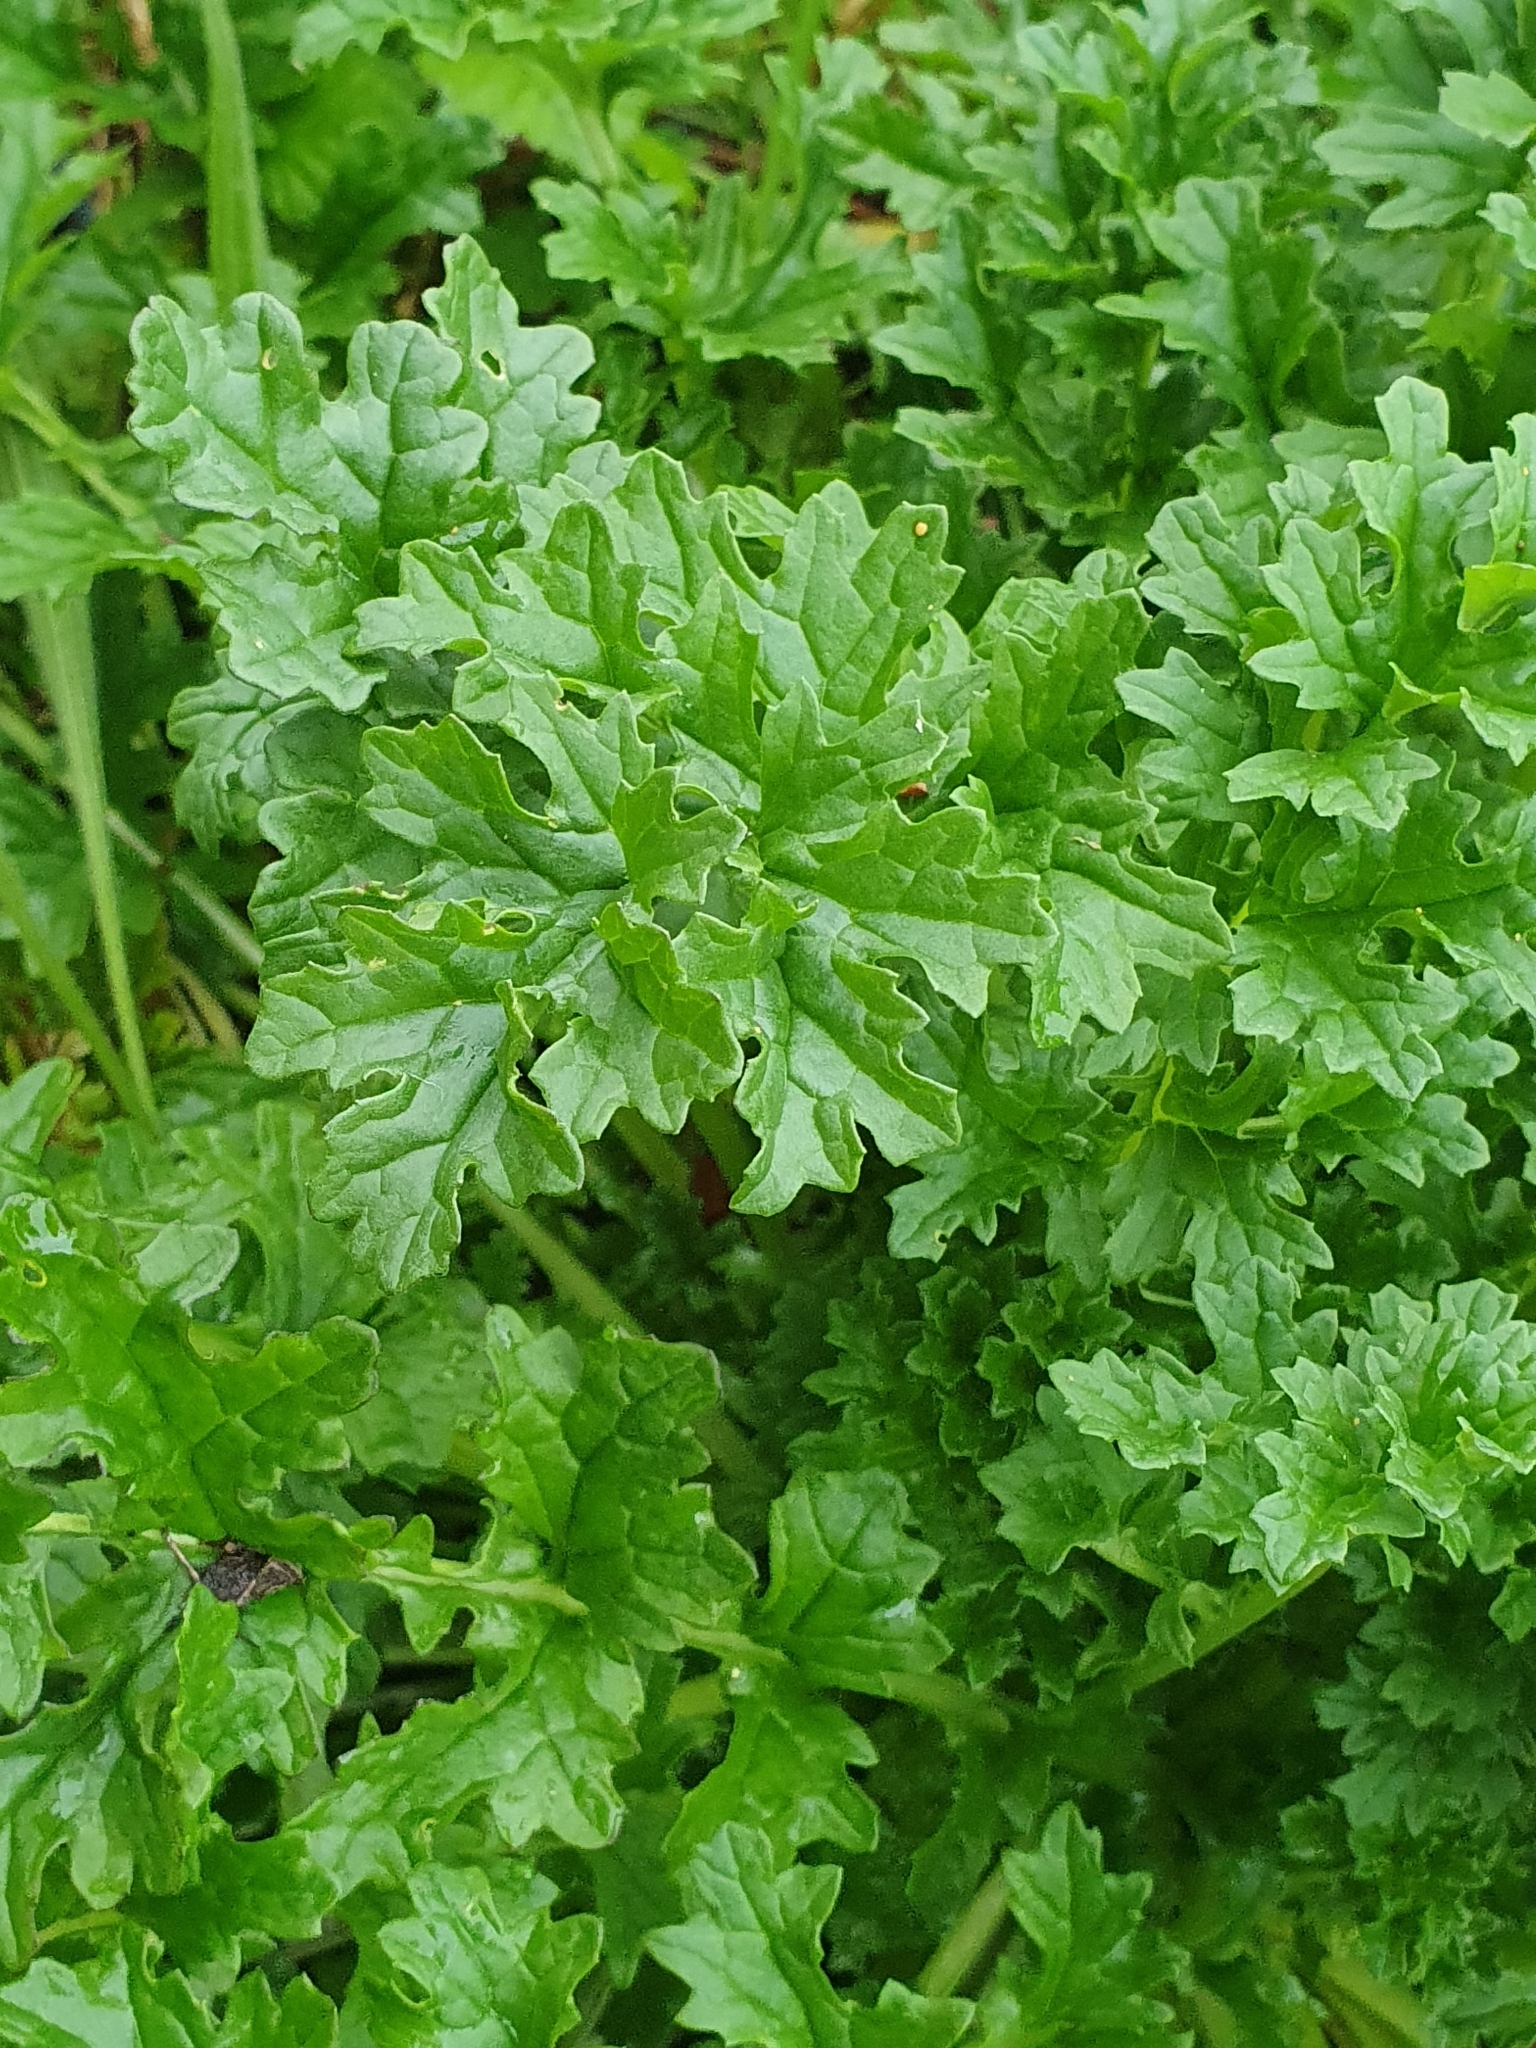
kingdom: Plantae
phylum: Tracheophyta
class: Magnoliopsida
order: Asterales
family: Asteraceae
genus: Jacobaea
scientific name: Jacobaea vulgaris
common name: Stinking willie
